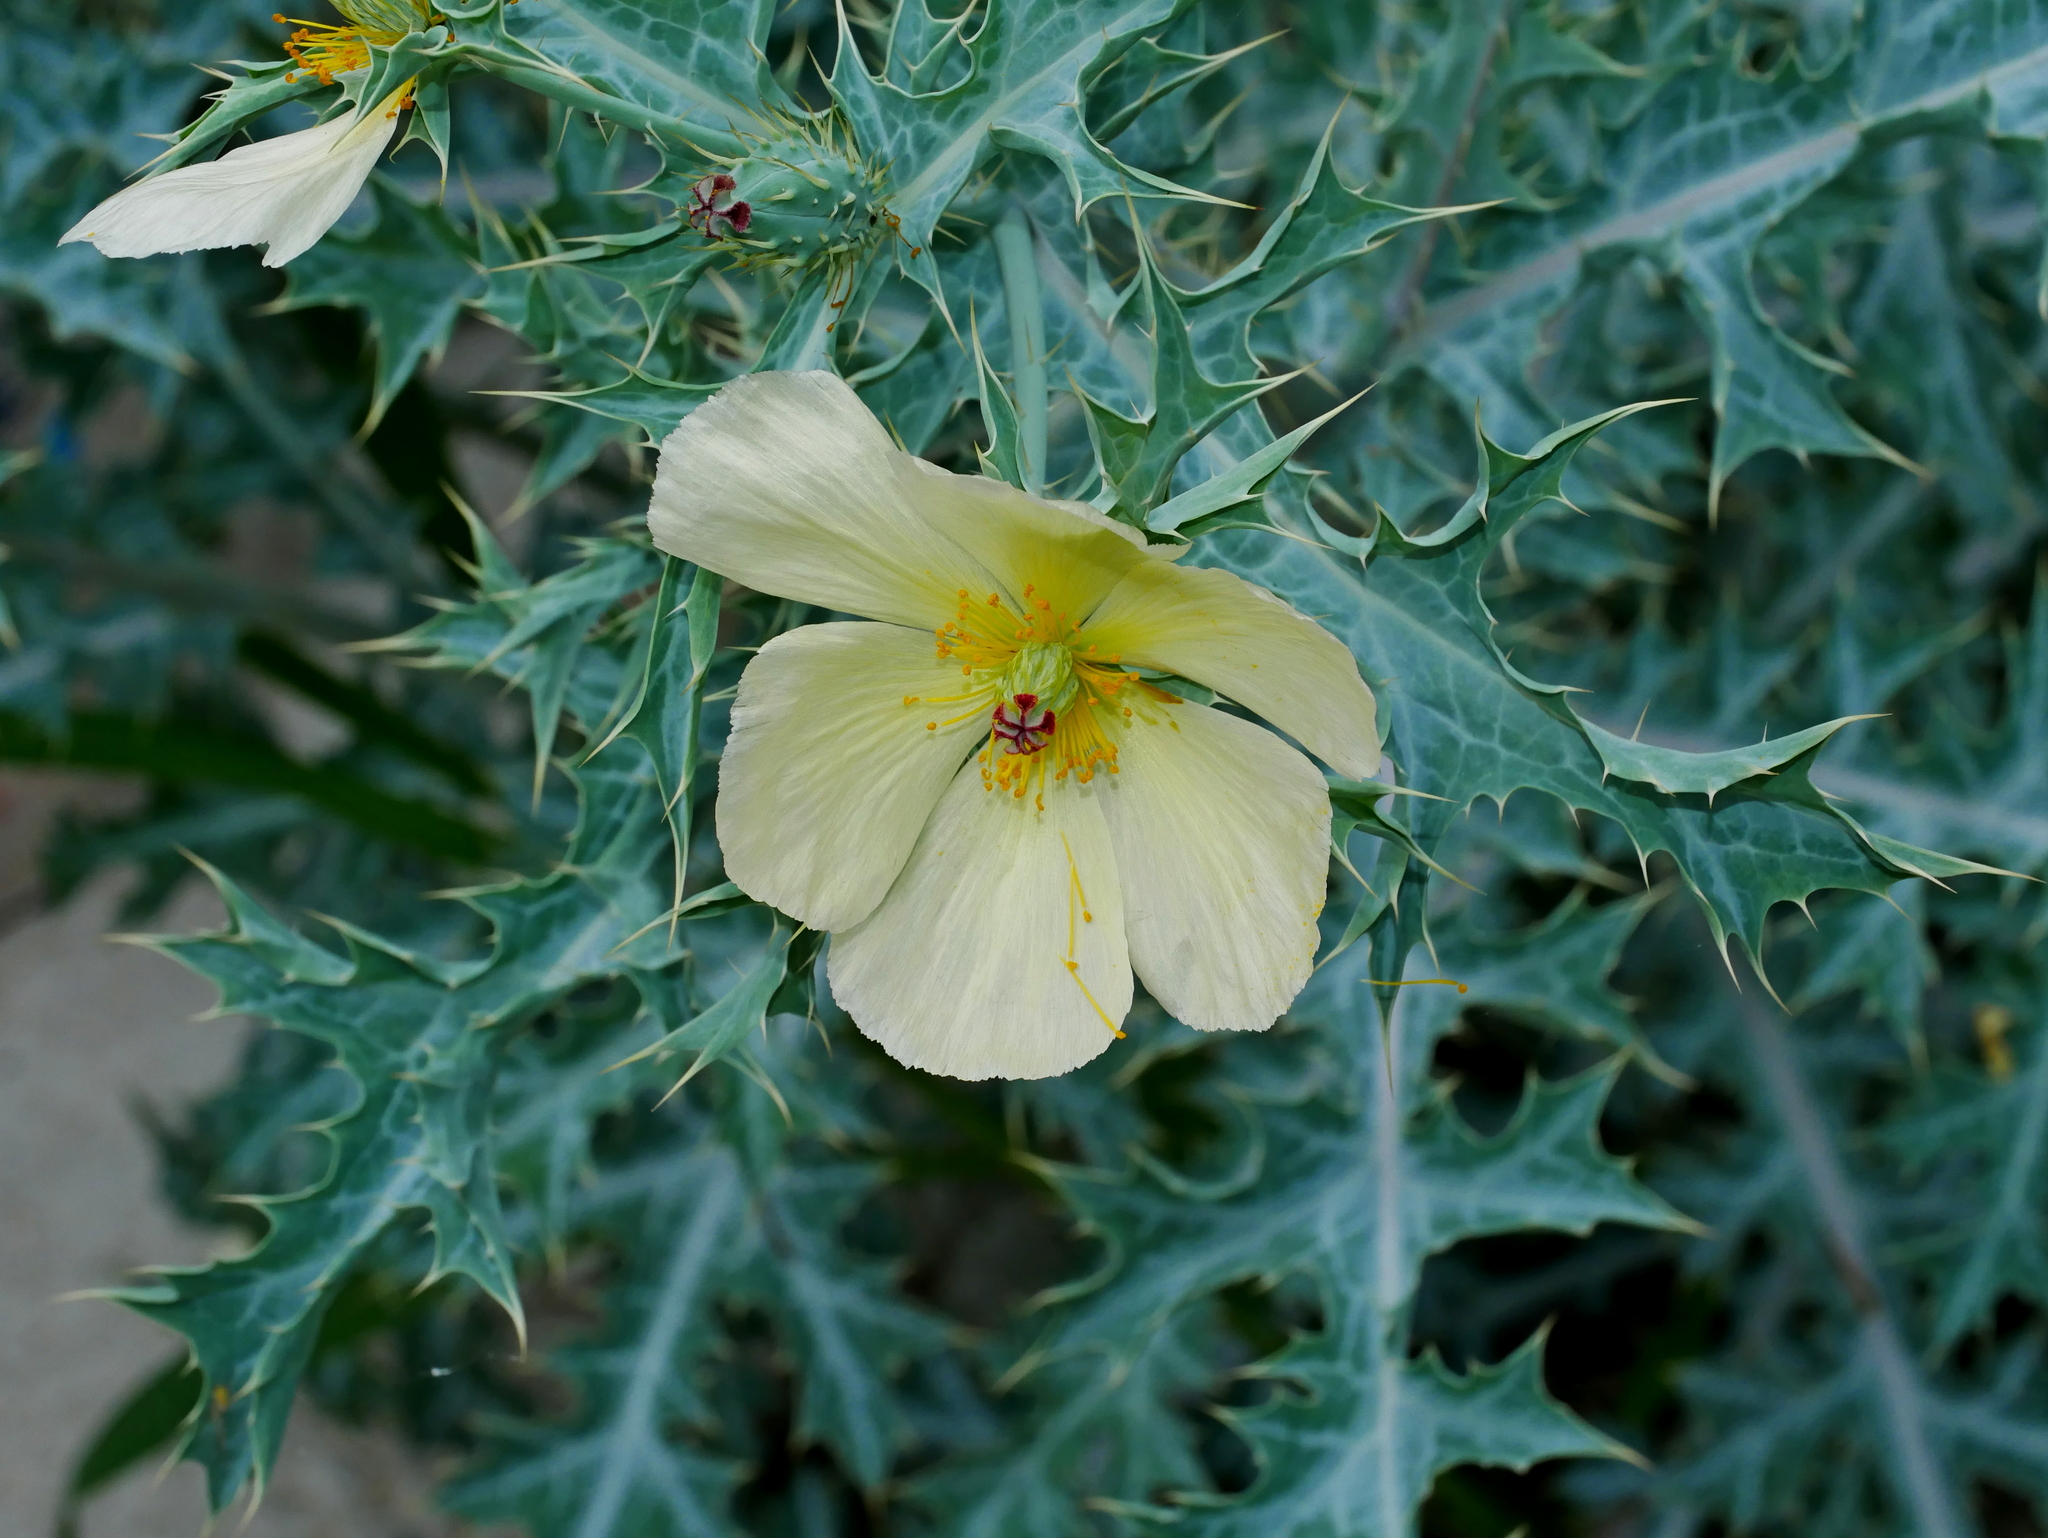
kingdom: Plantae
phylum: Tracheophyta
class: Magnoliopsida
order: Ranunculales
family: Papaveraceae
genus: Argemone
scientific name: Argemone ochroleuca
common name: White-flower mexican-poppy
